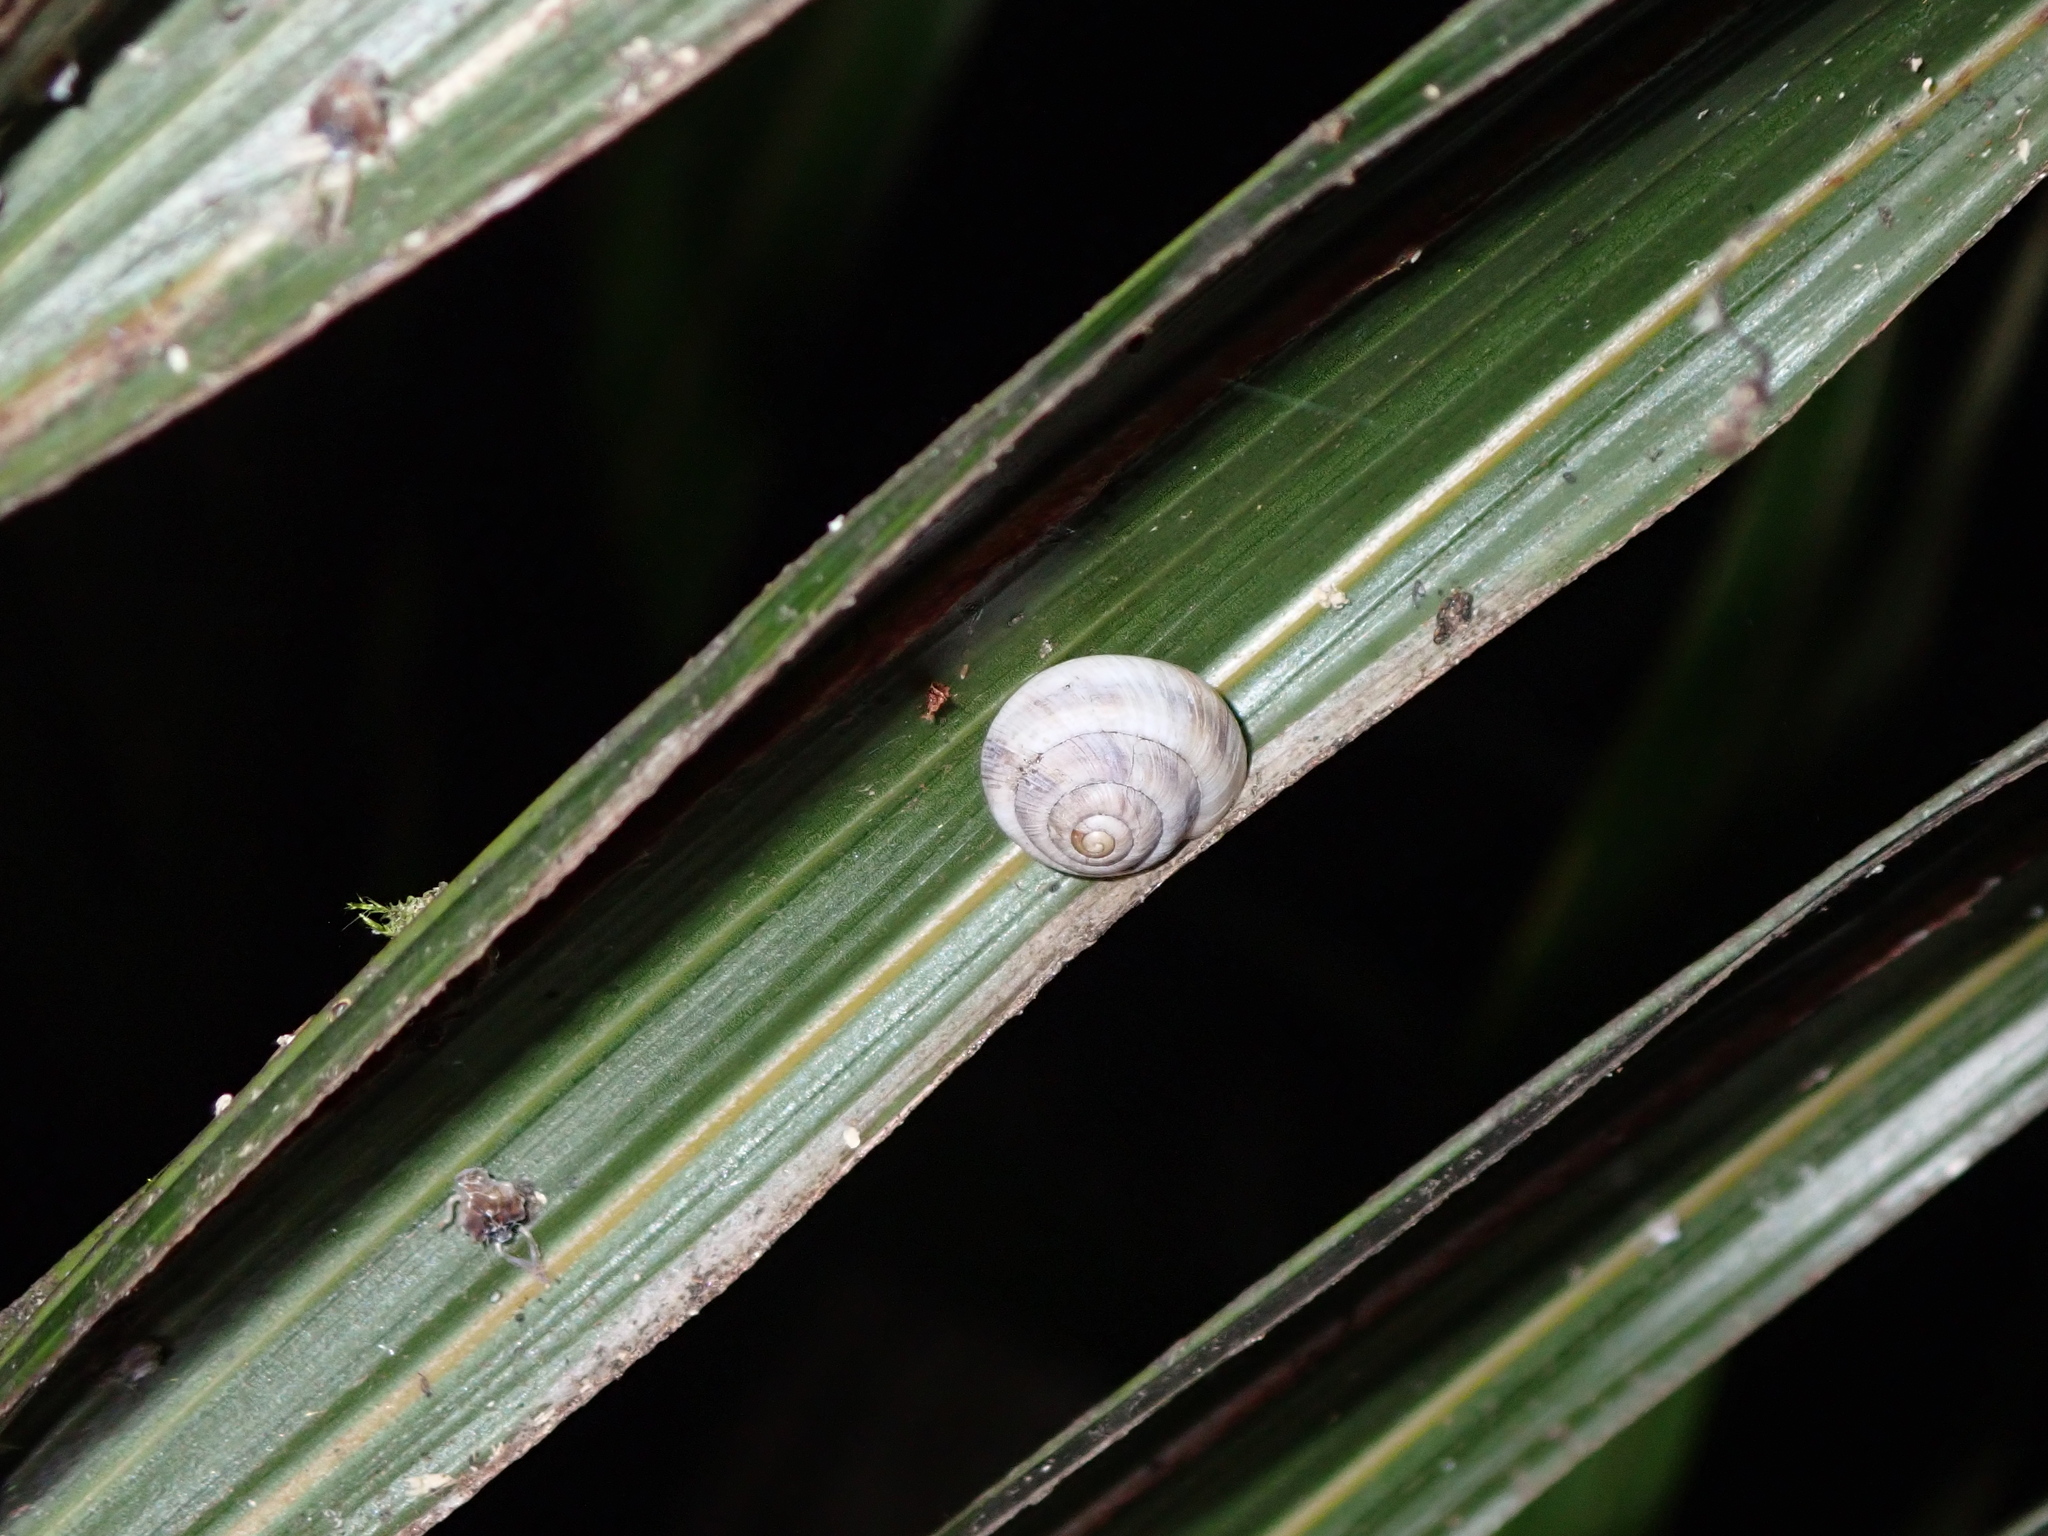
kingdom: Animalia
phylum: Mollusca
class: Gastropoda
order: Stylommatophora
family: Charopidae
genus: Serpho
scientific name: Serpho
